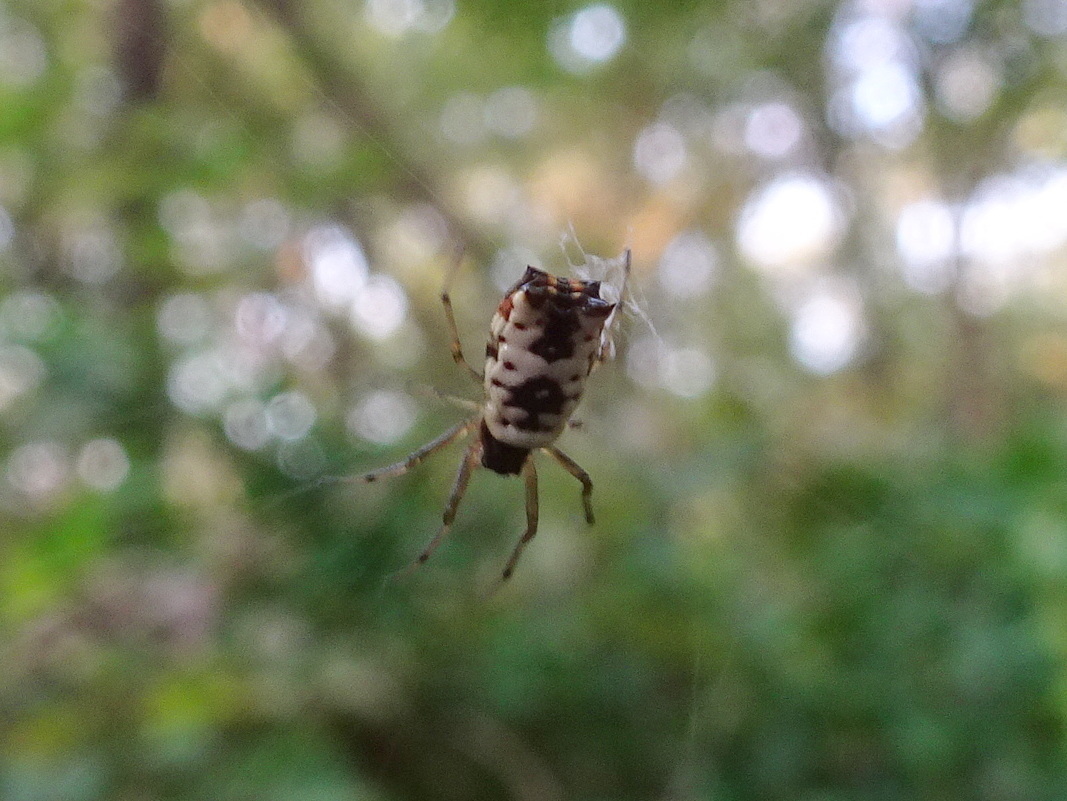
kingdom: Animalia
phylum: Arthropoda
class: Arachnida
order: Araneae
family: Araneidae
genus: Micrathena
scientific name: Micrathena mitrata
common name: Orb weavers
